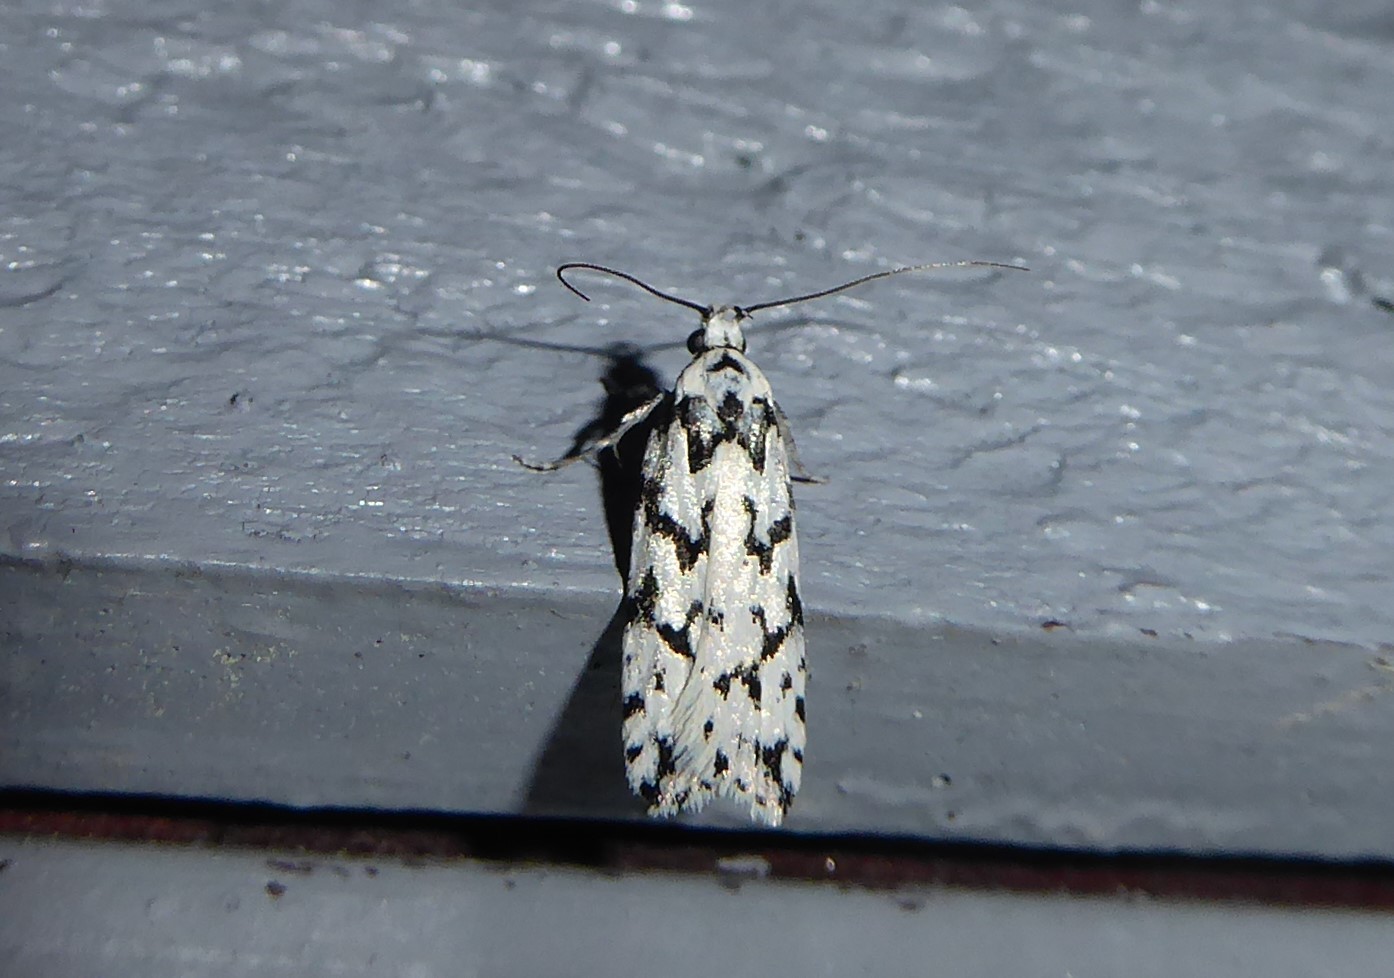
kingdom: Animalia
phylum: Arthropoda
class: Insecta
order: Lepidoptera
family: Oecophoridae
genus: Izatha
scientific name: Izatha katadiktya
